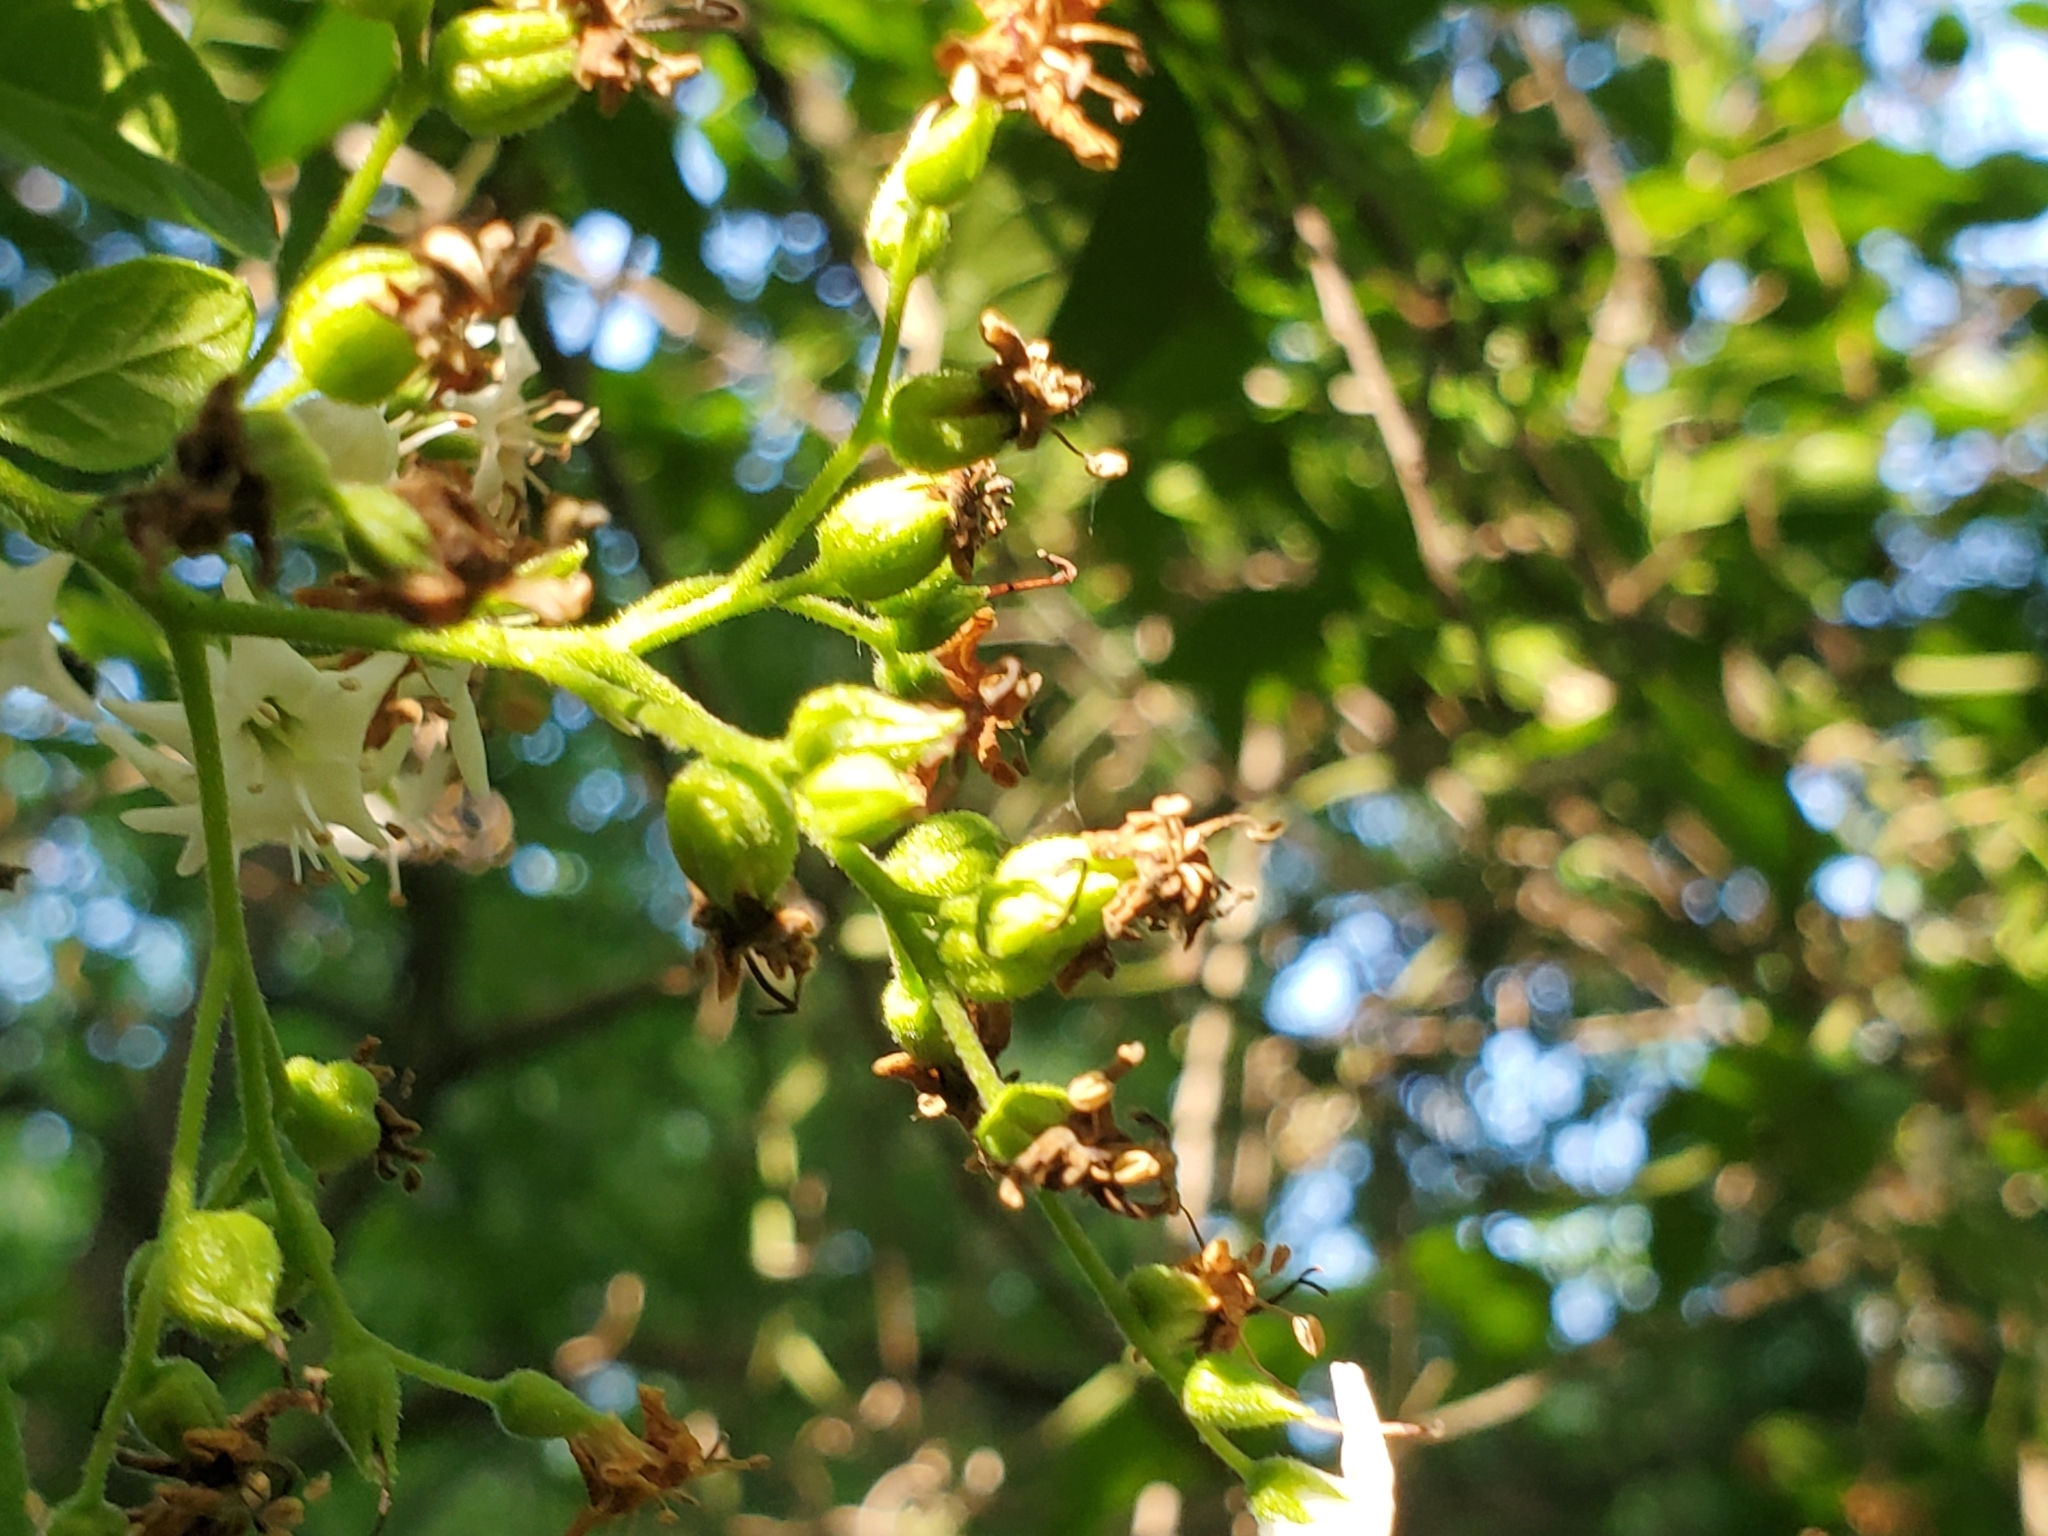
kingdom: Plantae
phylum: Tracheophyta
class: Magnoliopsida
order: Boraginales
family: Ehretiaceae
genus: Ehretia
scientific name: Ehretia anacua
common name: Sugarberry
